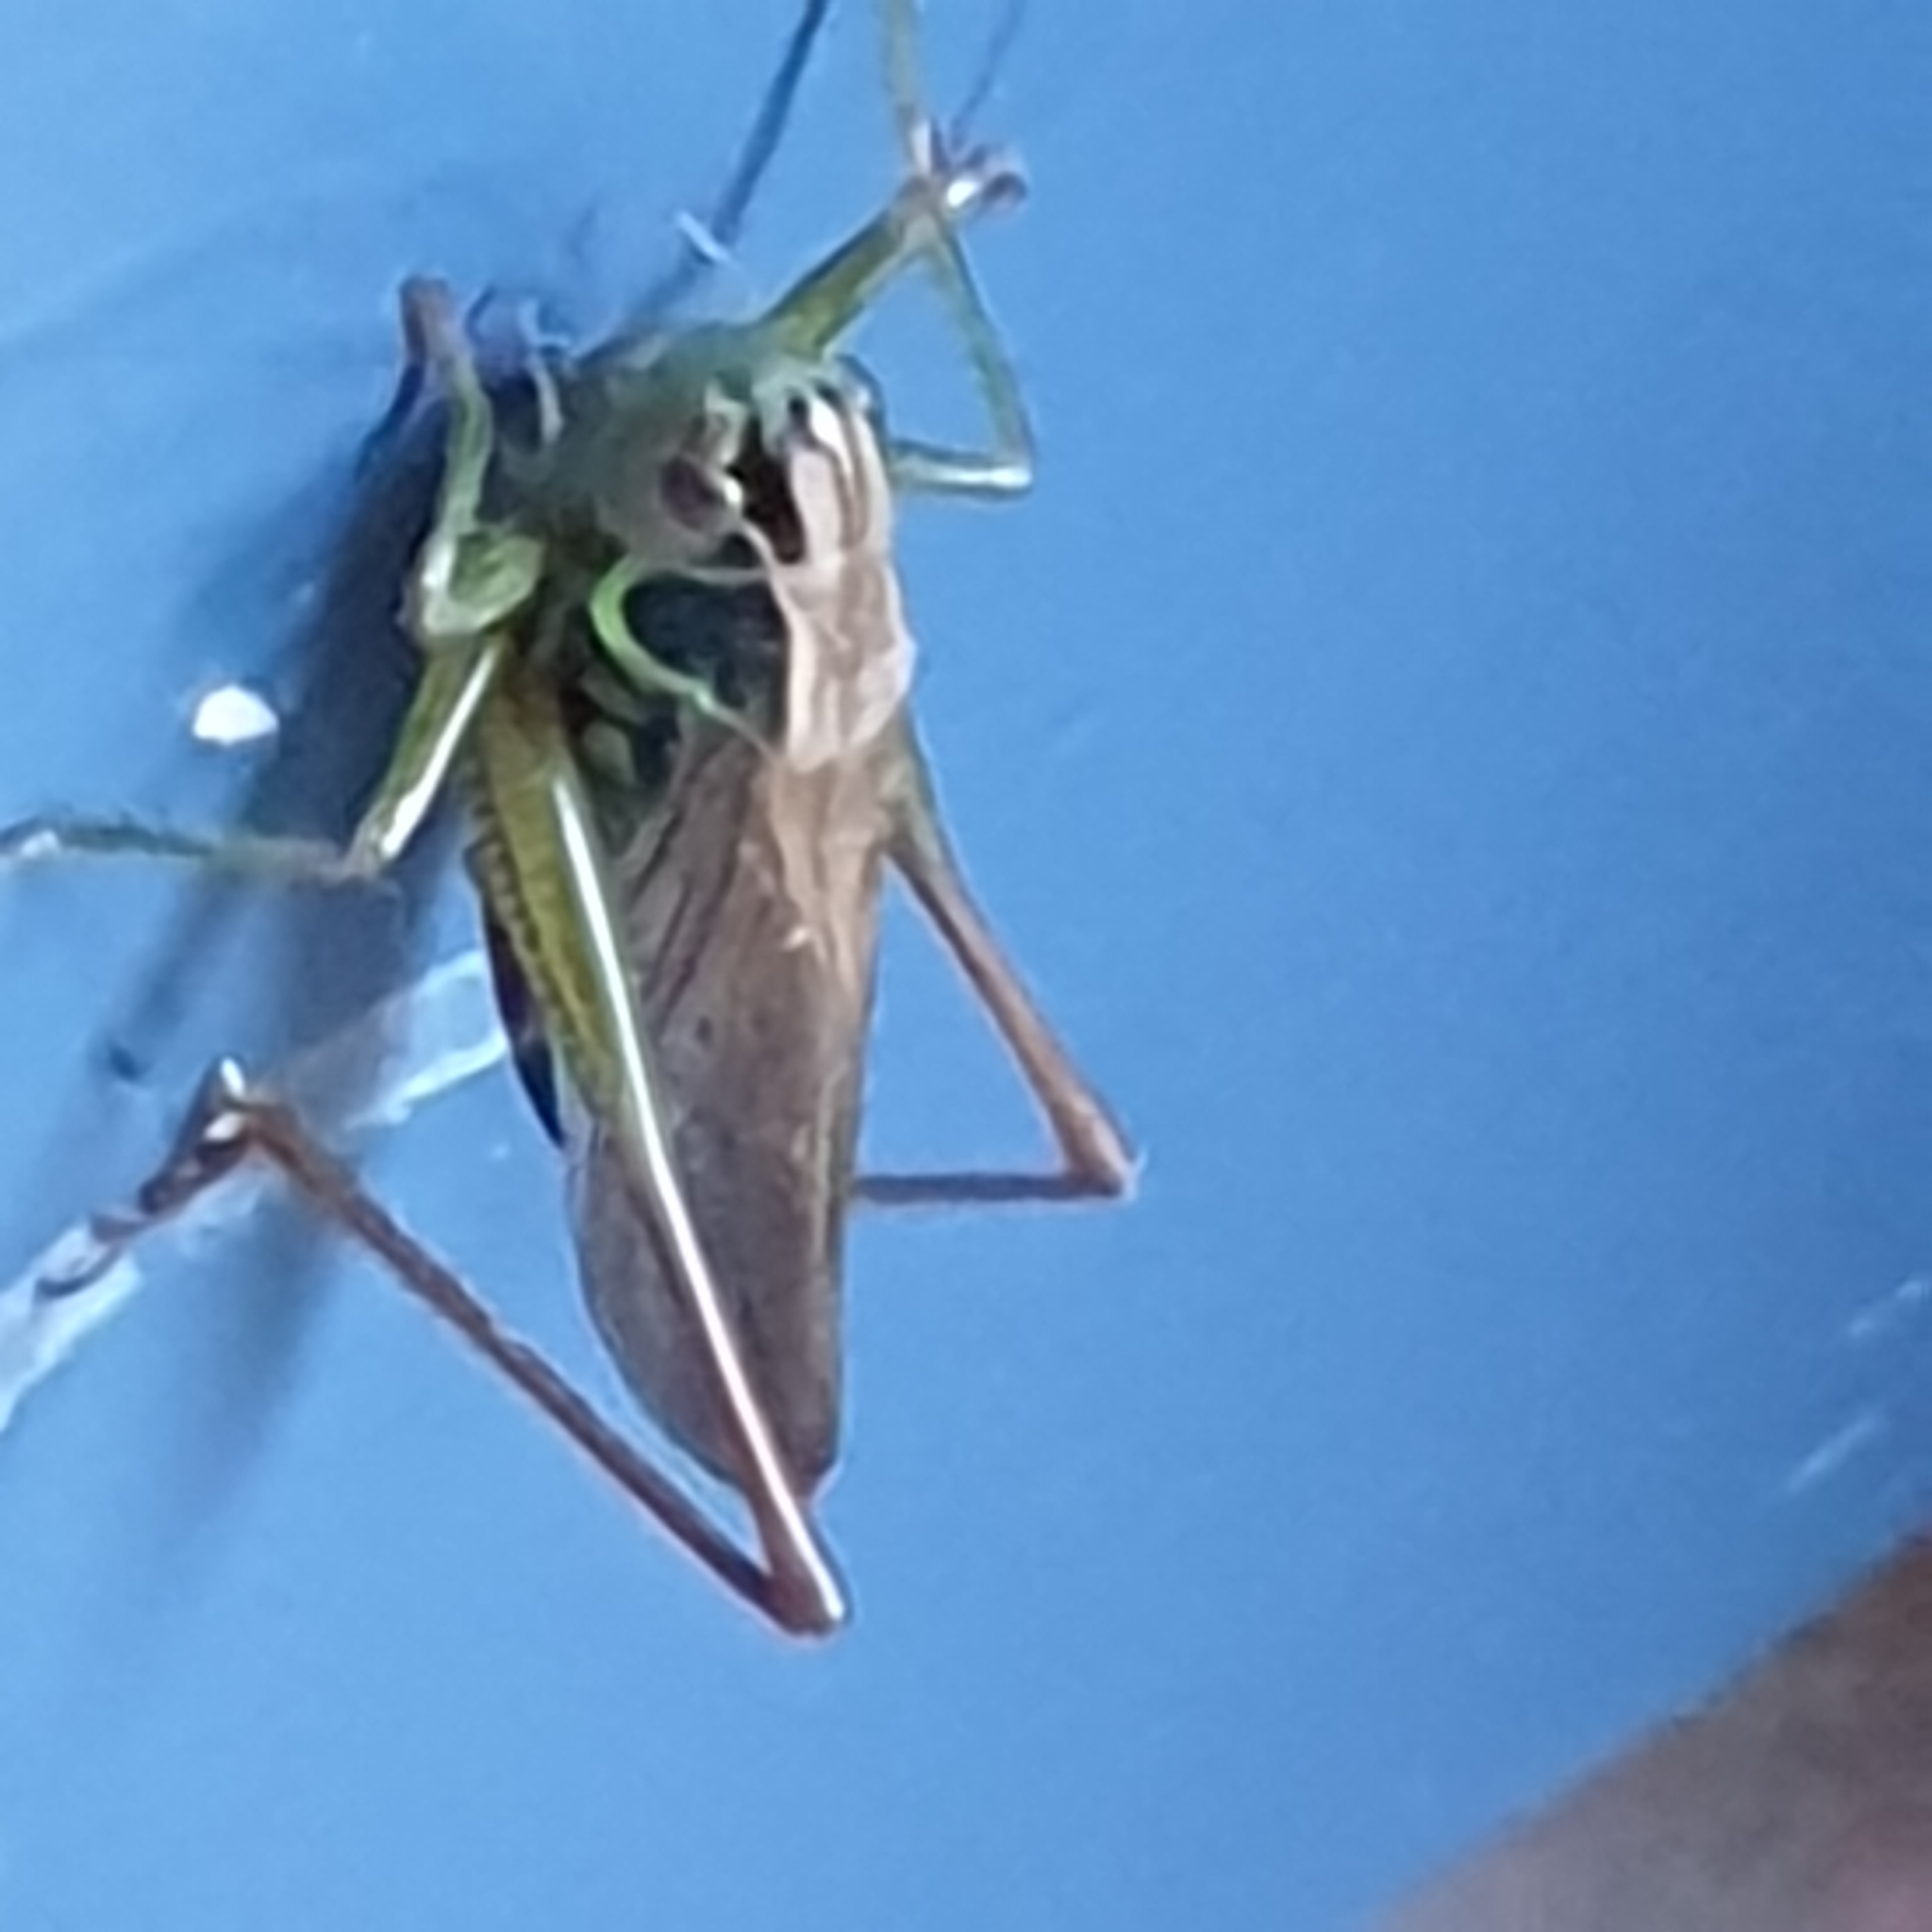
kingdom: Animalia
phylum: Arthropoda
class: Insecta
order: Orthoptera
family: Tettigoniidae
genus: Roeseliana
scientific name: Roeseliana roeselii
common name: Roesel's bush cricket
